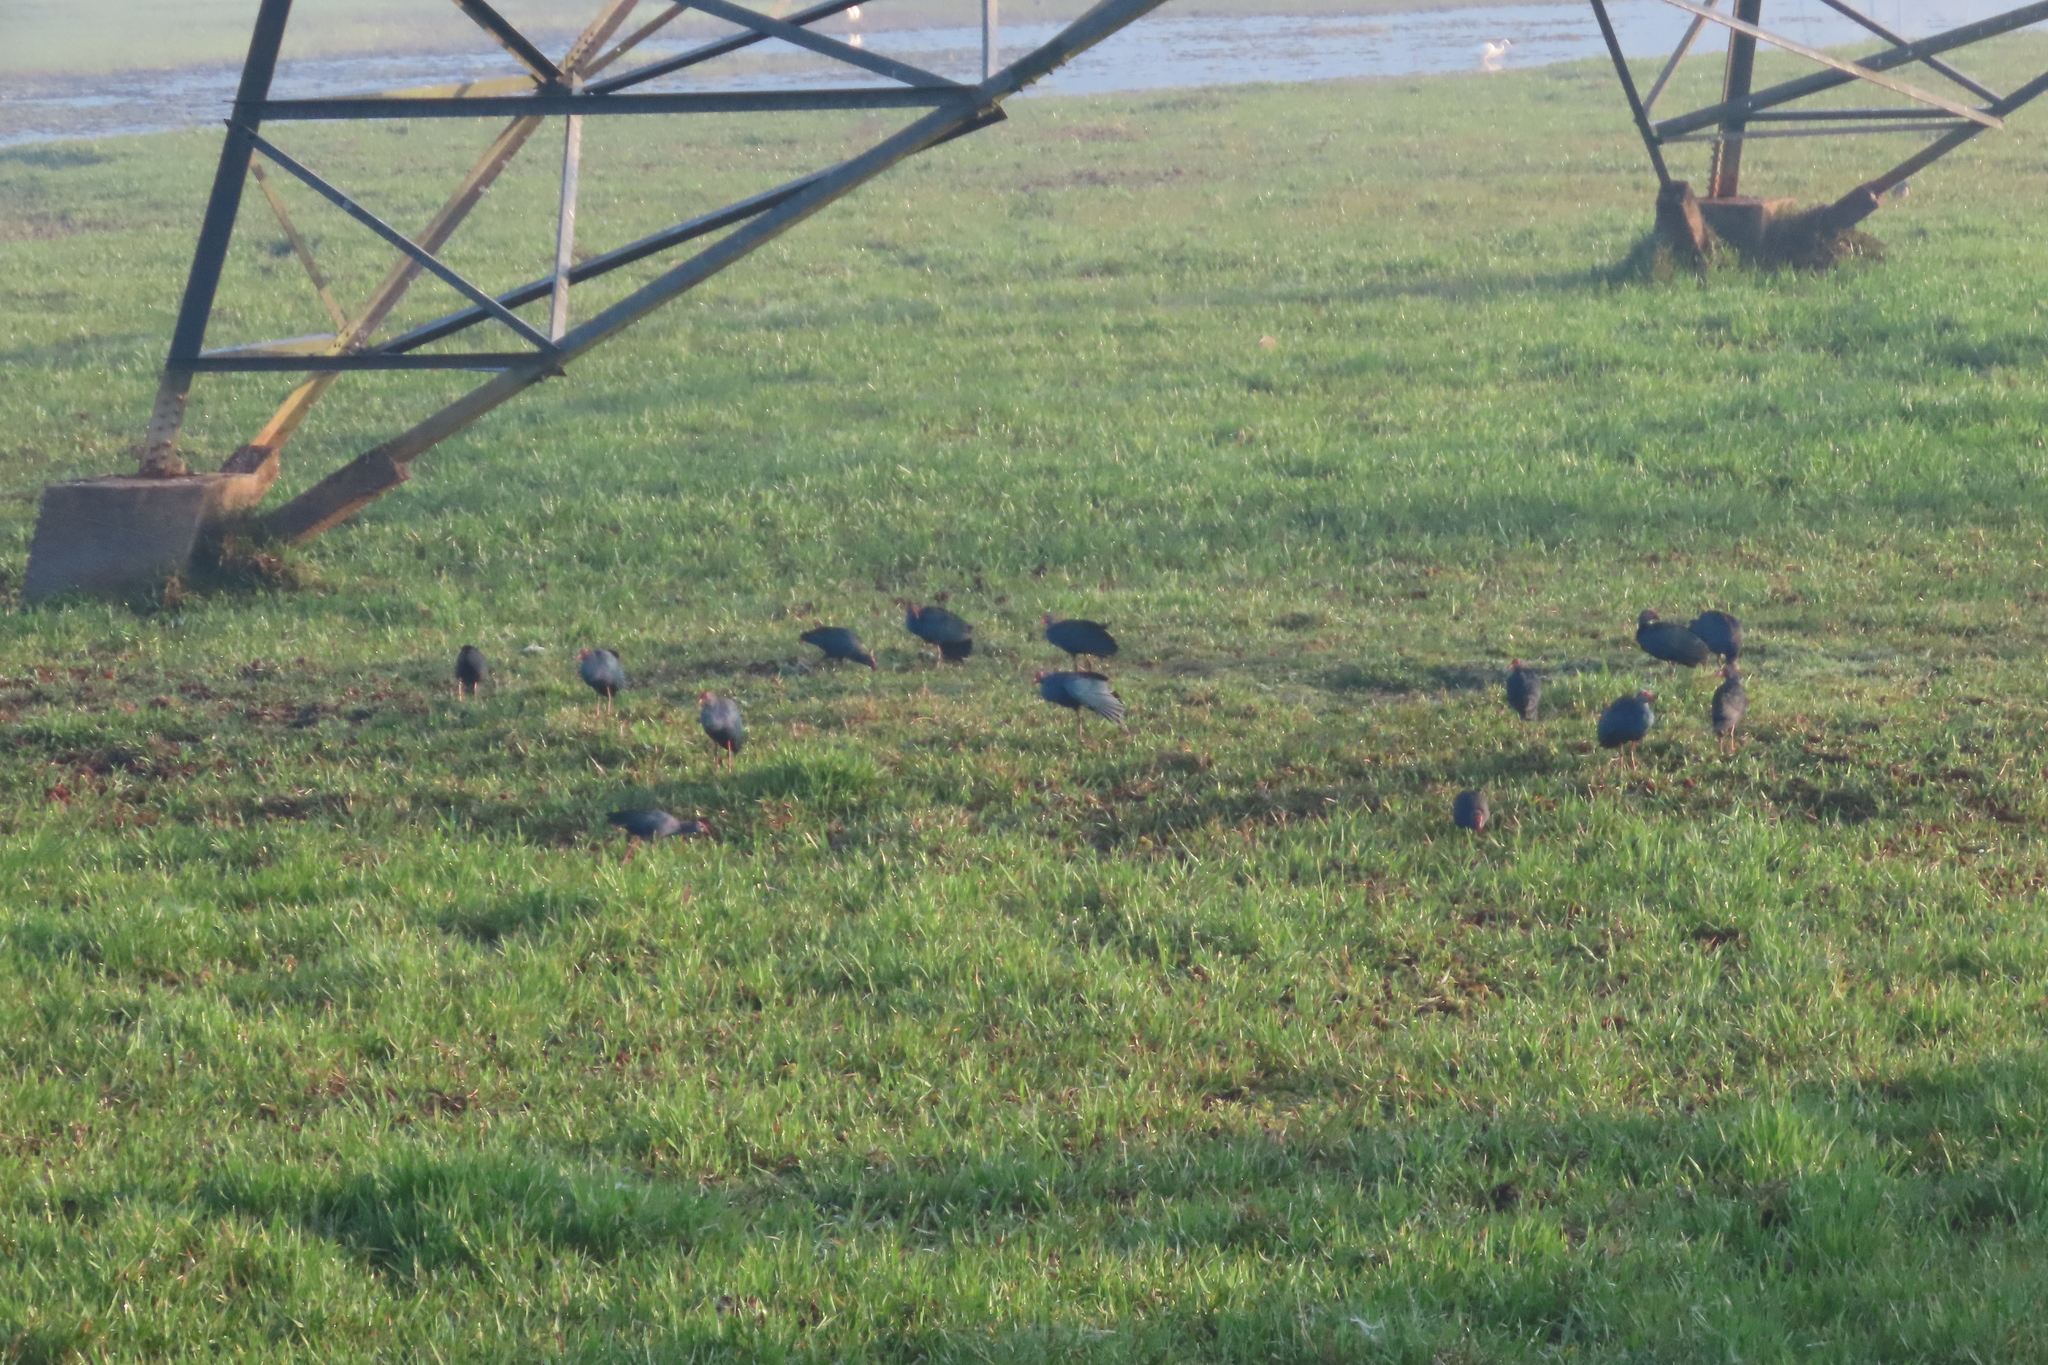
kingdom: Animalia
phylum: Chordata
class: Aves
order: Gruiformes
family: Rallidae
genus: Porphyrio
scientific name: Porphyrio porphyrio
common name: Purple swamphen
